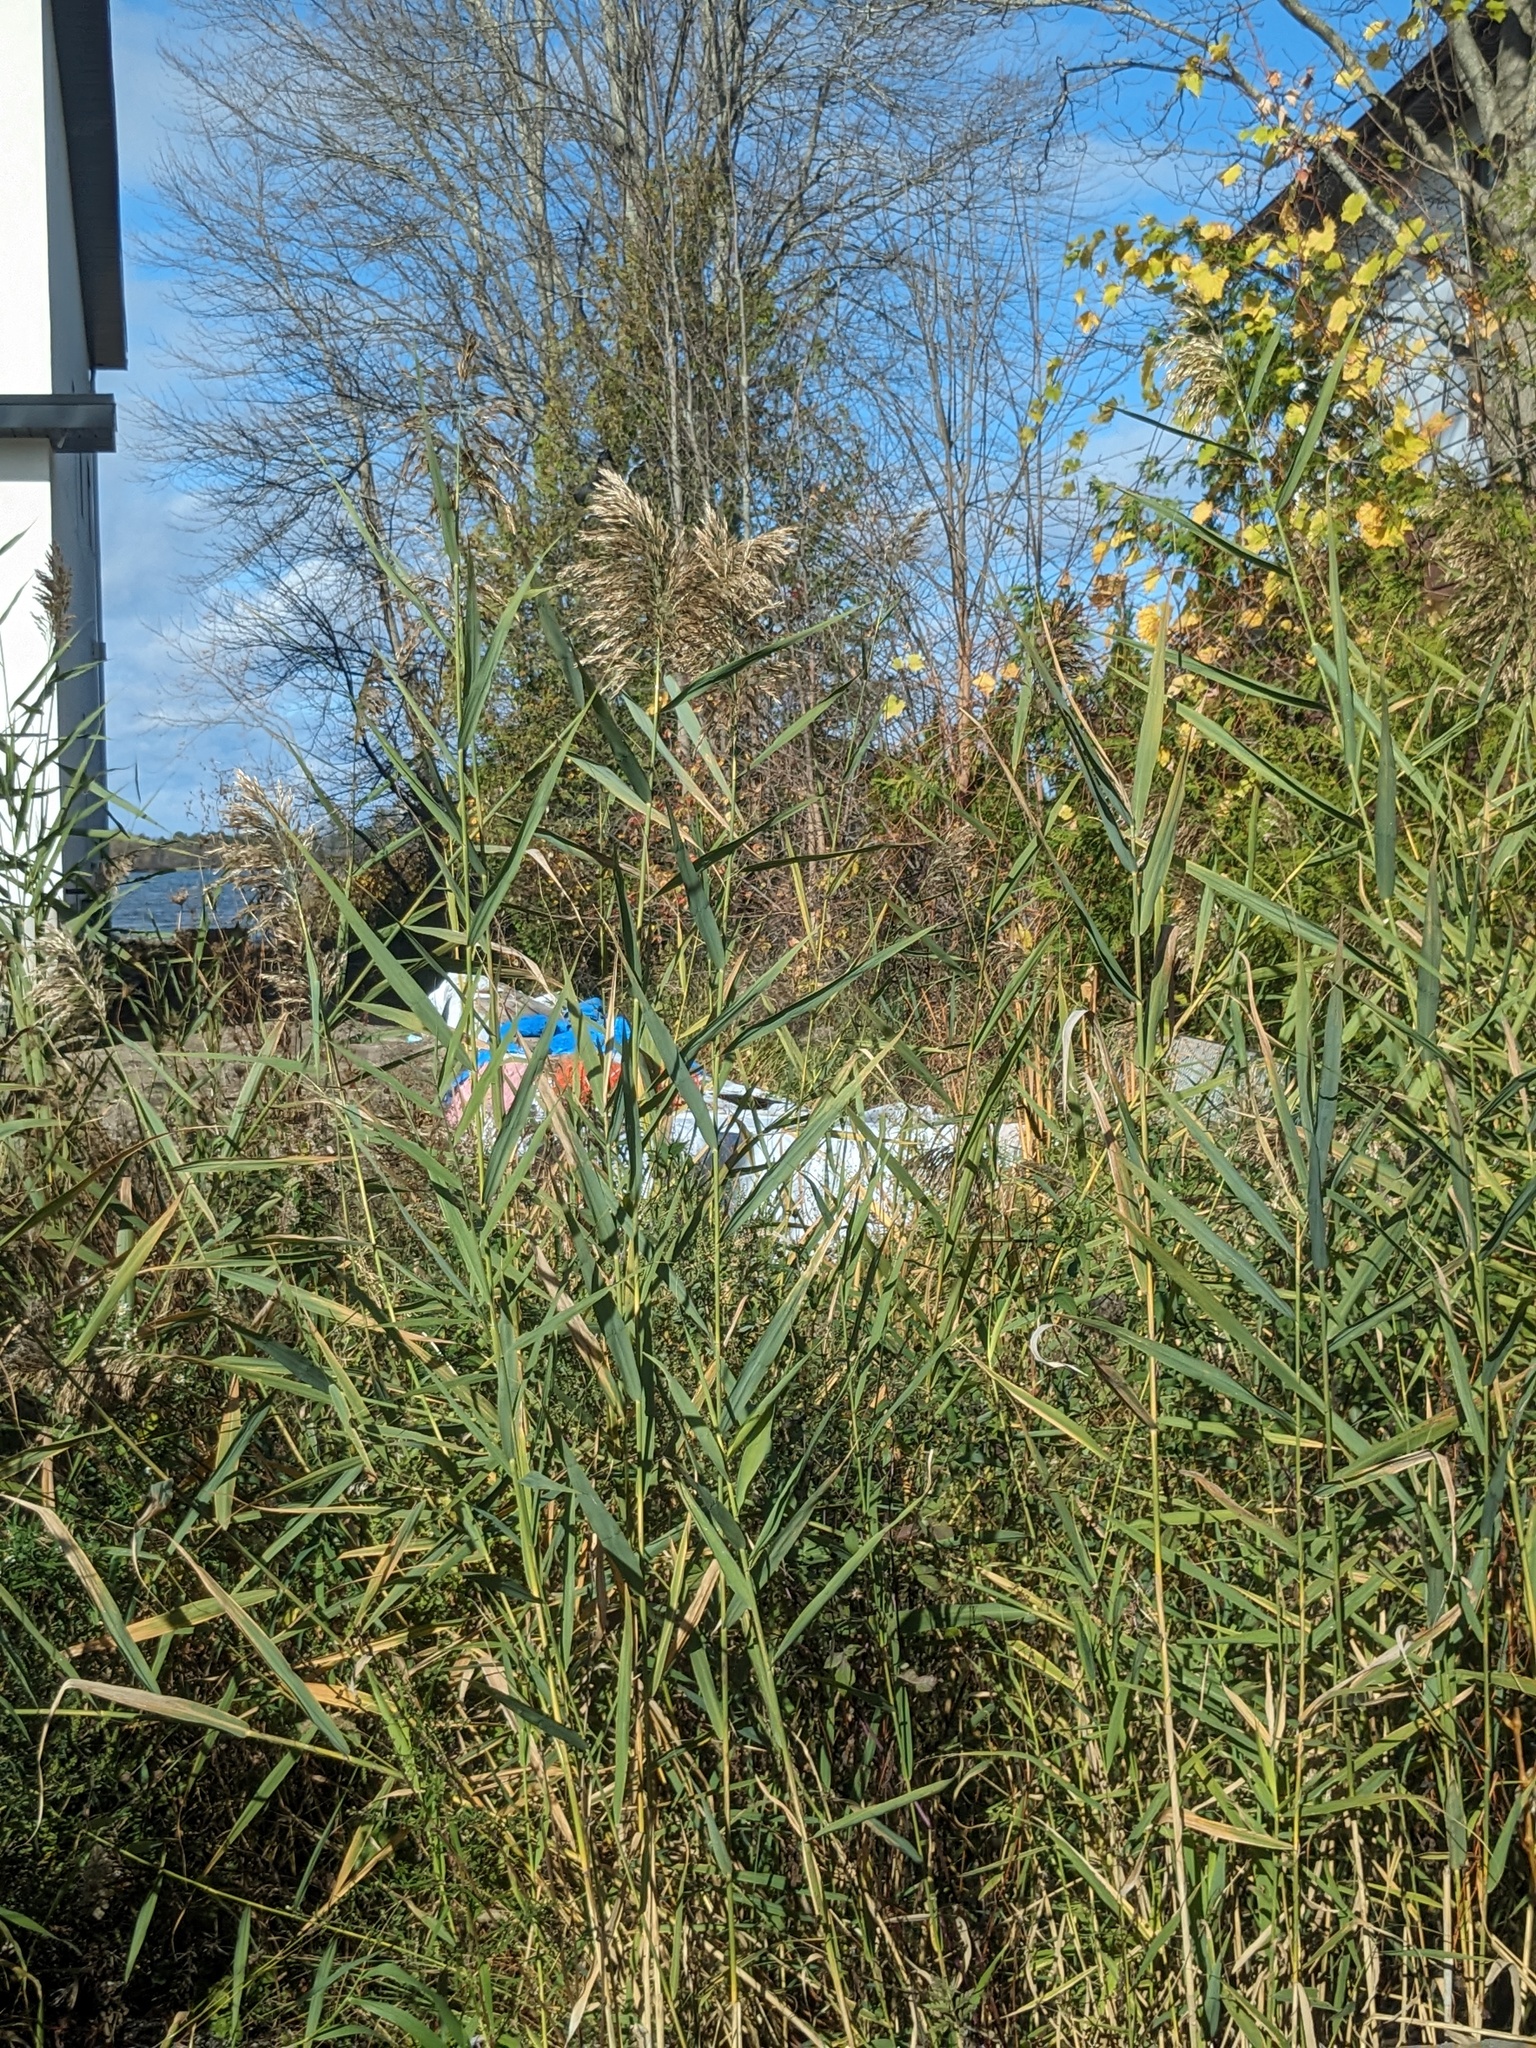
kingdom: Plantae
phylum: Tracheophyta
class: Liliopsida
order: Poales
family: Poaceae
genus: Phragmites
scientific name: Phragmites australis
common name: Common reed
